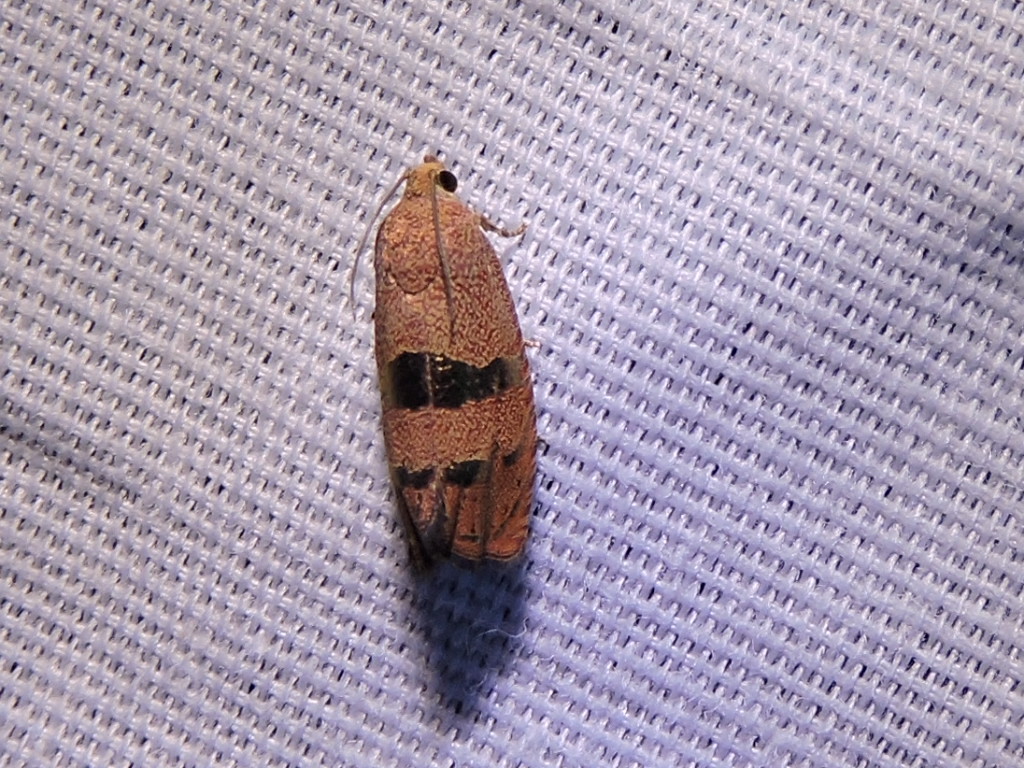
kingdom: Animalia
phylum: Arthropoda
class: Insecta
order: Lepidoptera
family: Tortricidae
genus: Cydia
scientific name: Cydia latiferreana
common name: Filbertworm moth
